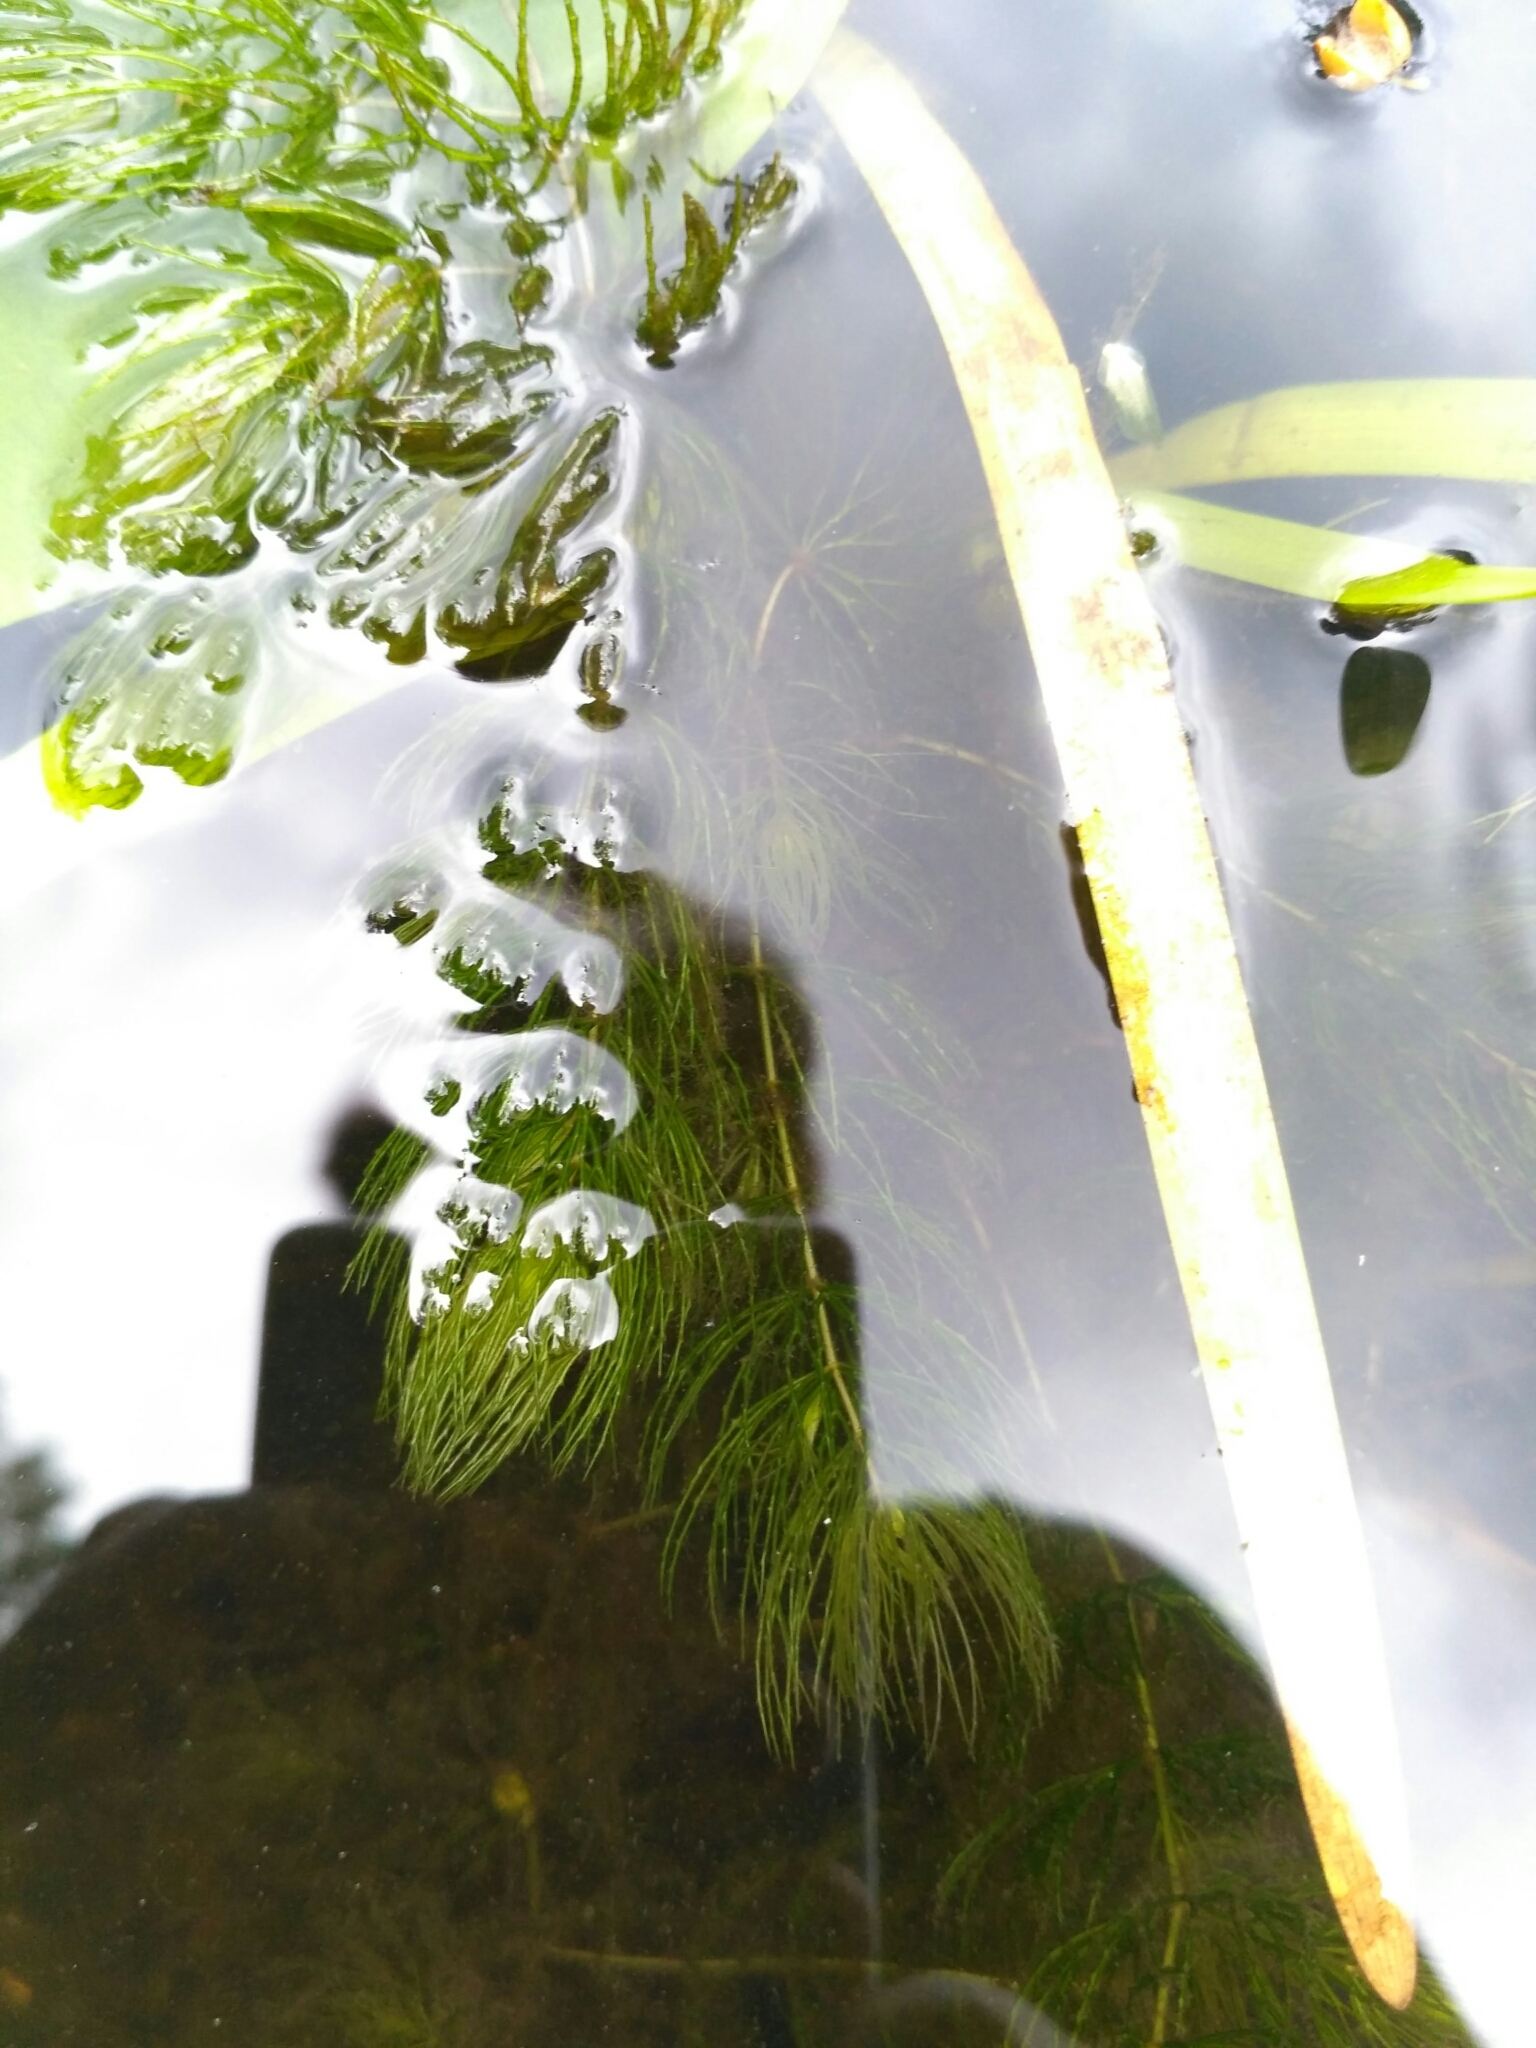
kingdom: Plantae
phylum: Tracheophyta
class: Magnoliopsida
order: Ceratophyllales
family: Ceratophyllaceae
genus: Ceratophyllum
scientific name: Ceratophyllum demersum
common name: Rigid hornwort
